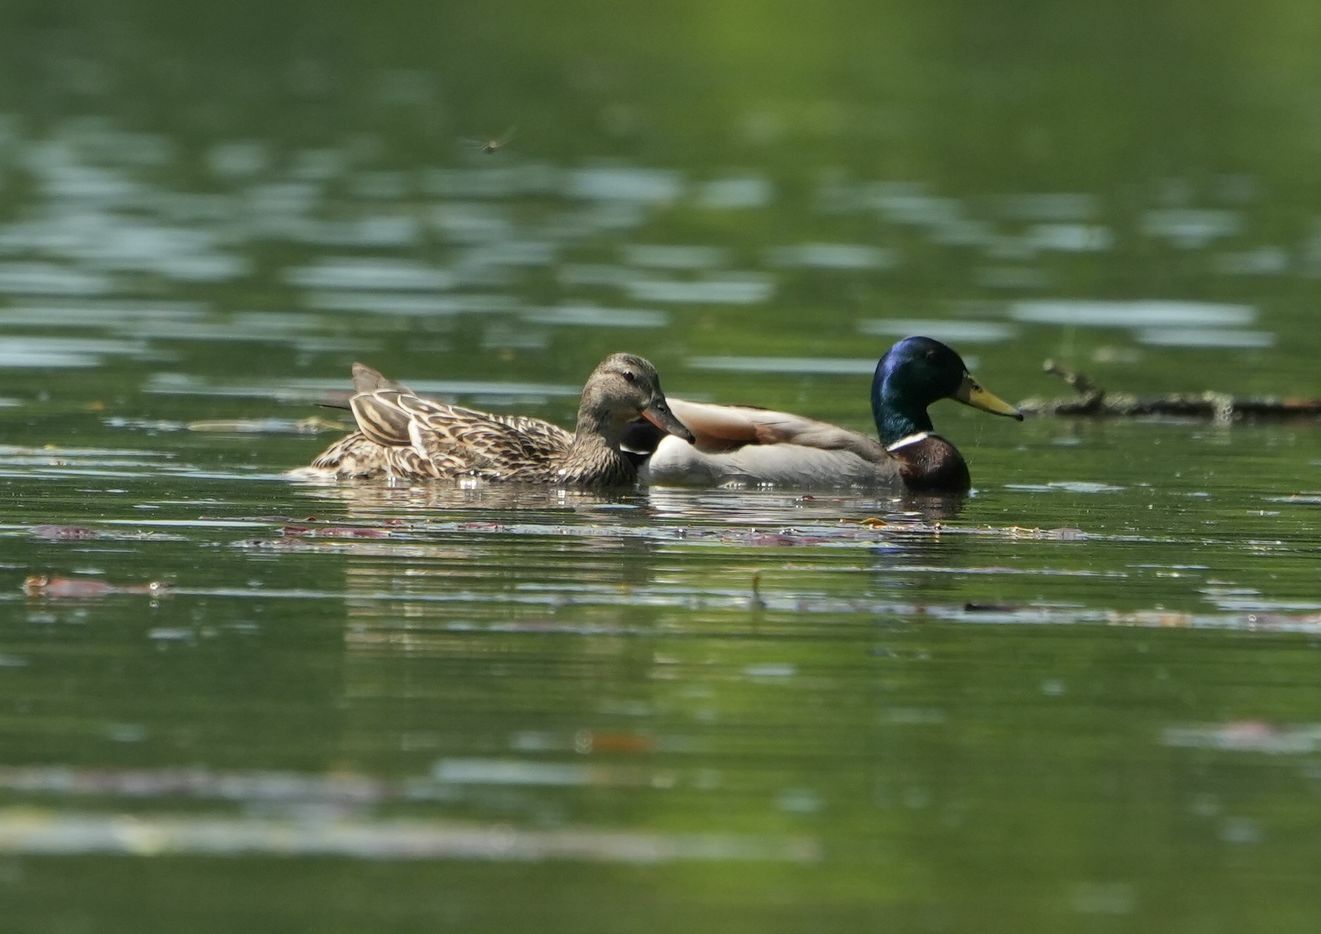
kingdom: Animalia
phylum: Chordata
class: Aves
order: Anseriformes
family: Anatidae
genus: Anas
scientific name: Anas platyrhynchos
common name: Mallard
